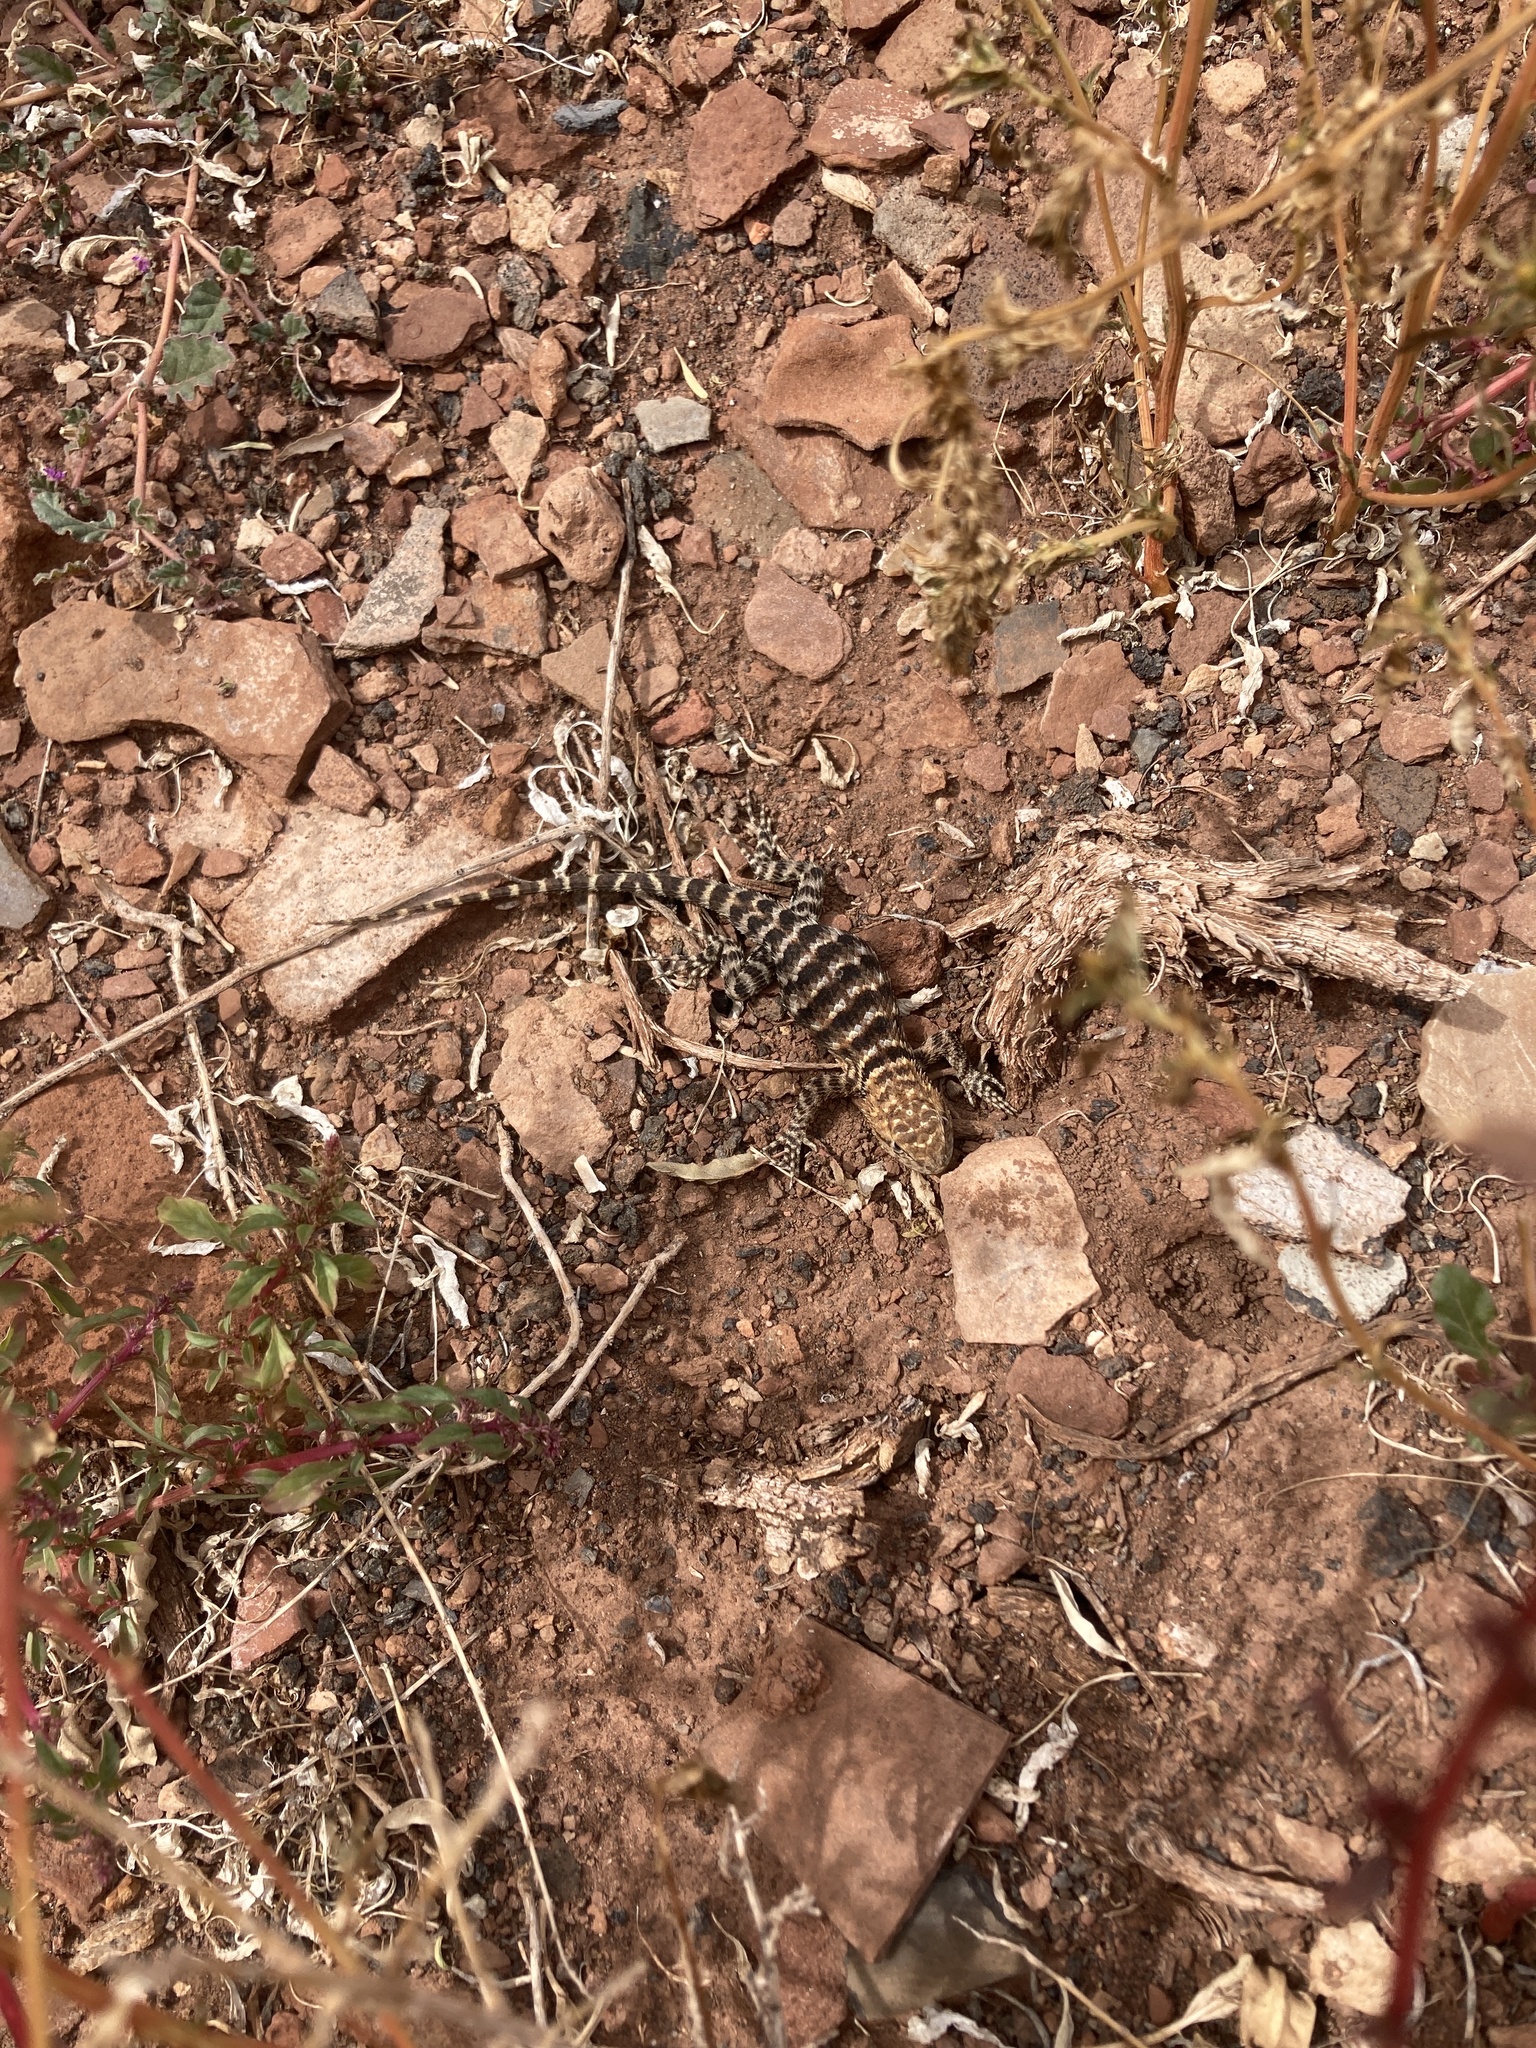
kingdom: Animalia
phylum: Chordata
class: Squamata
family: Phrynosomatidae
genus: Sceloporus
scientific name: Sceloporus magister
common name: Desert spiny lizard
